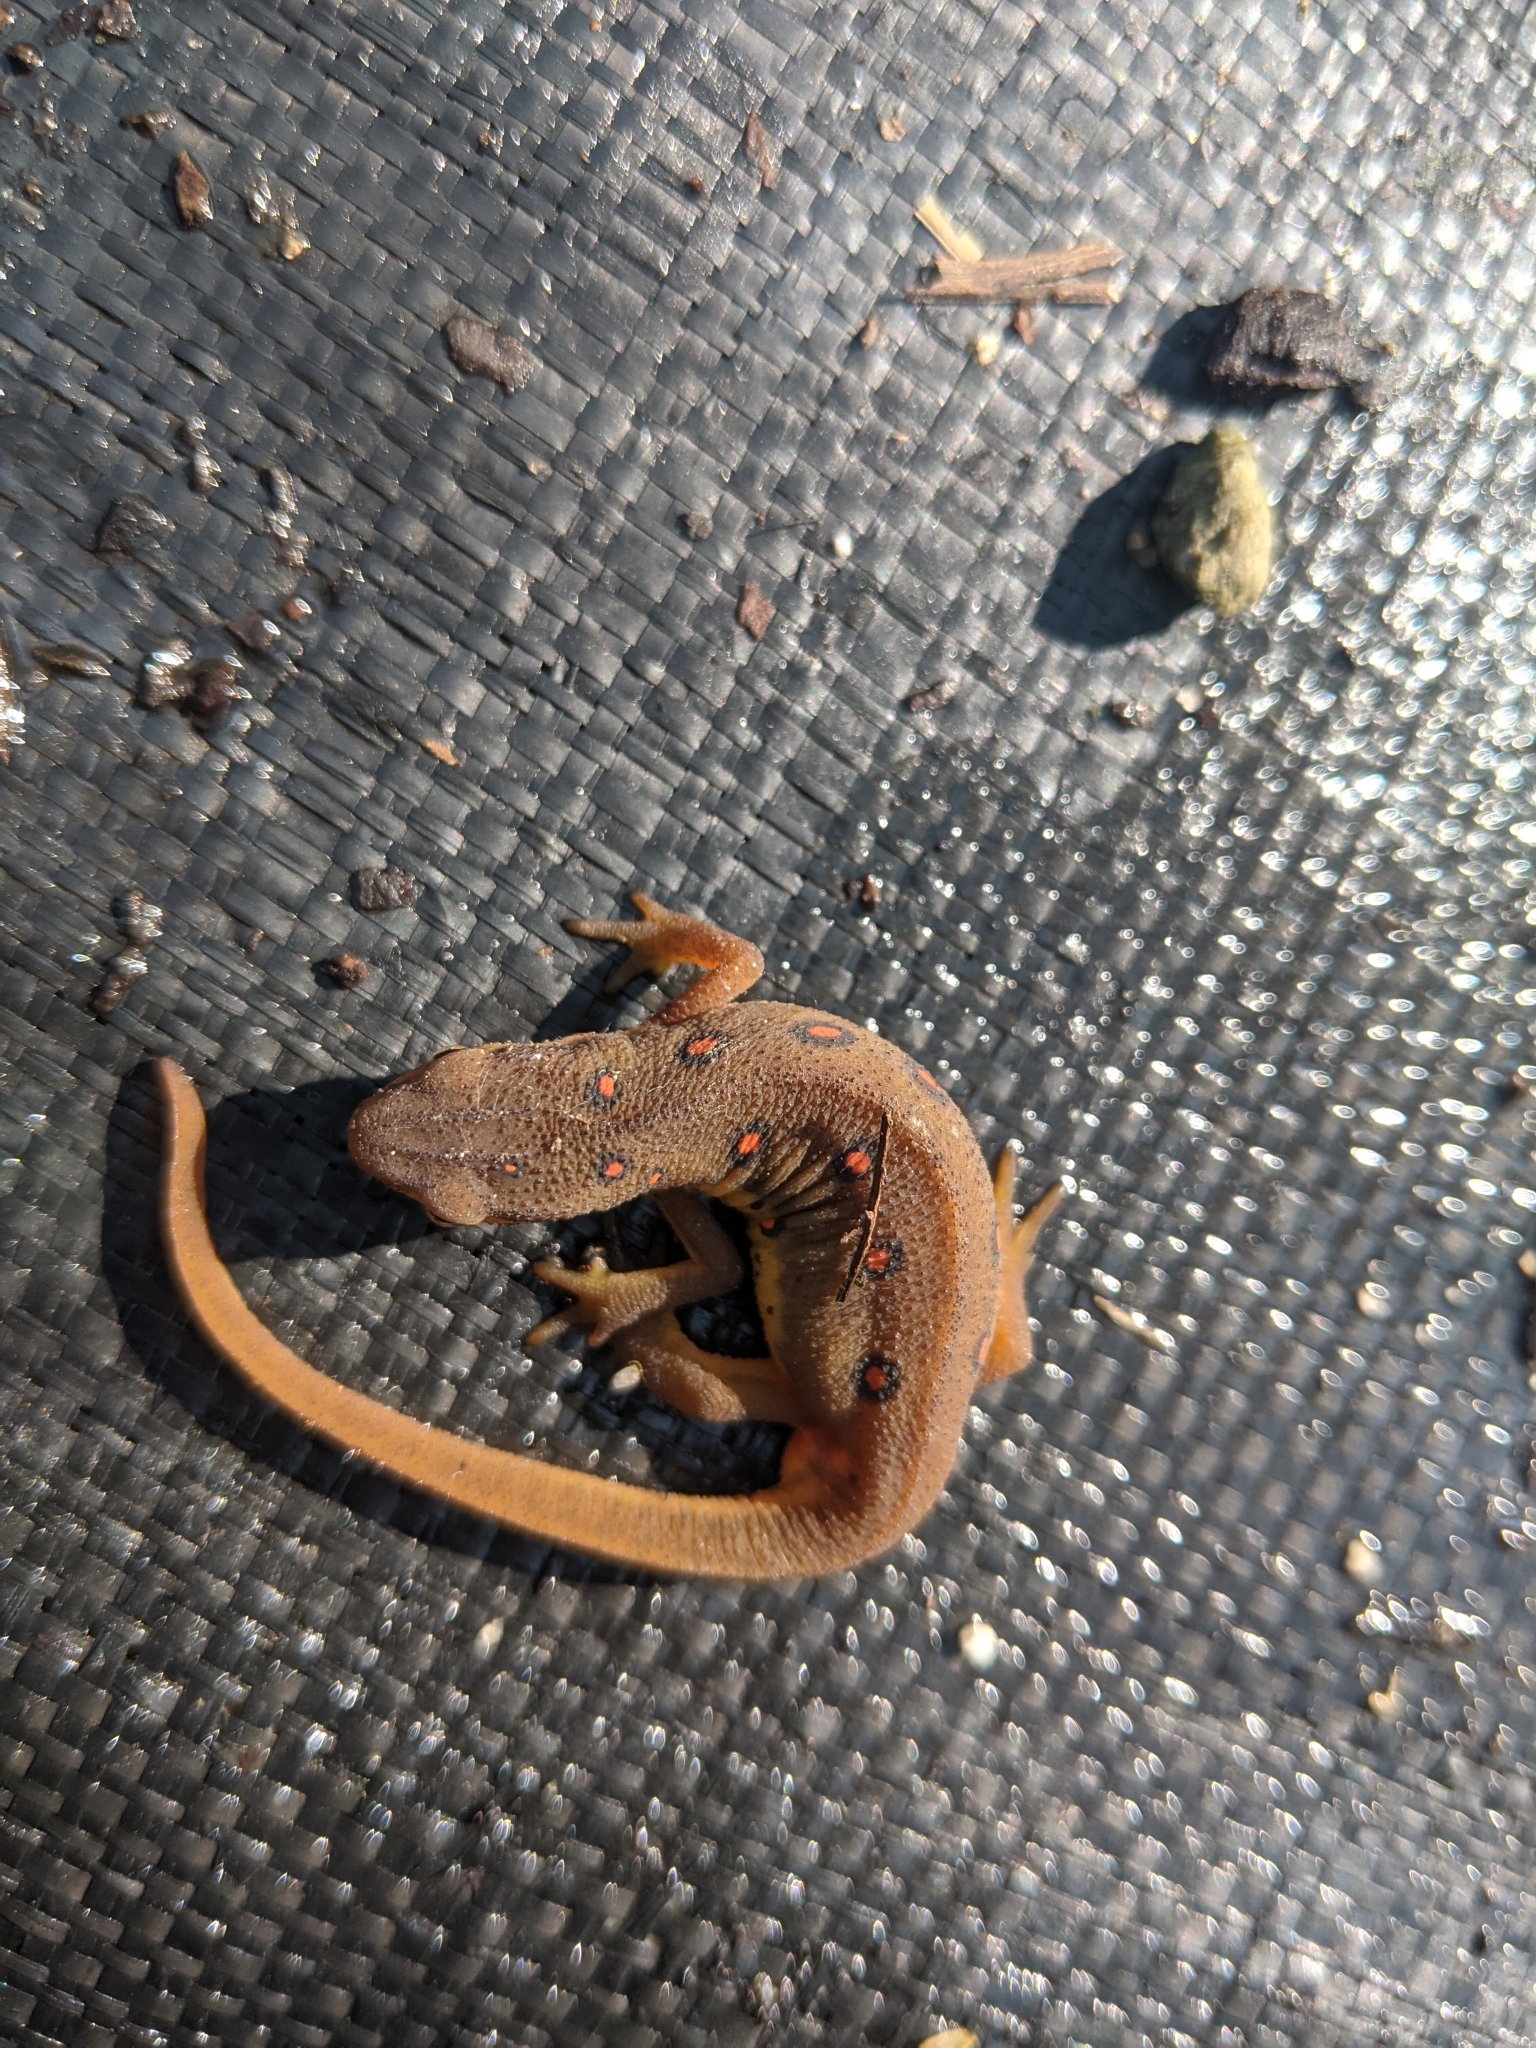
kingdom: Animalia
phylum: Chordata
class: Amphibia
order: Caudata
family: Salamandridae
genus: Notophthalmus
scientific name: Notophthalmus viridescens
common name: Eastern newt
